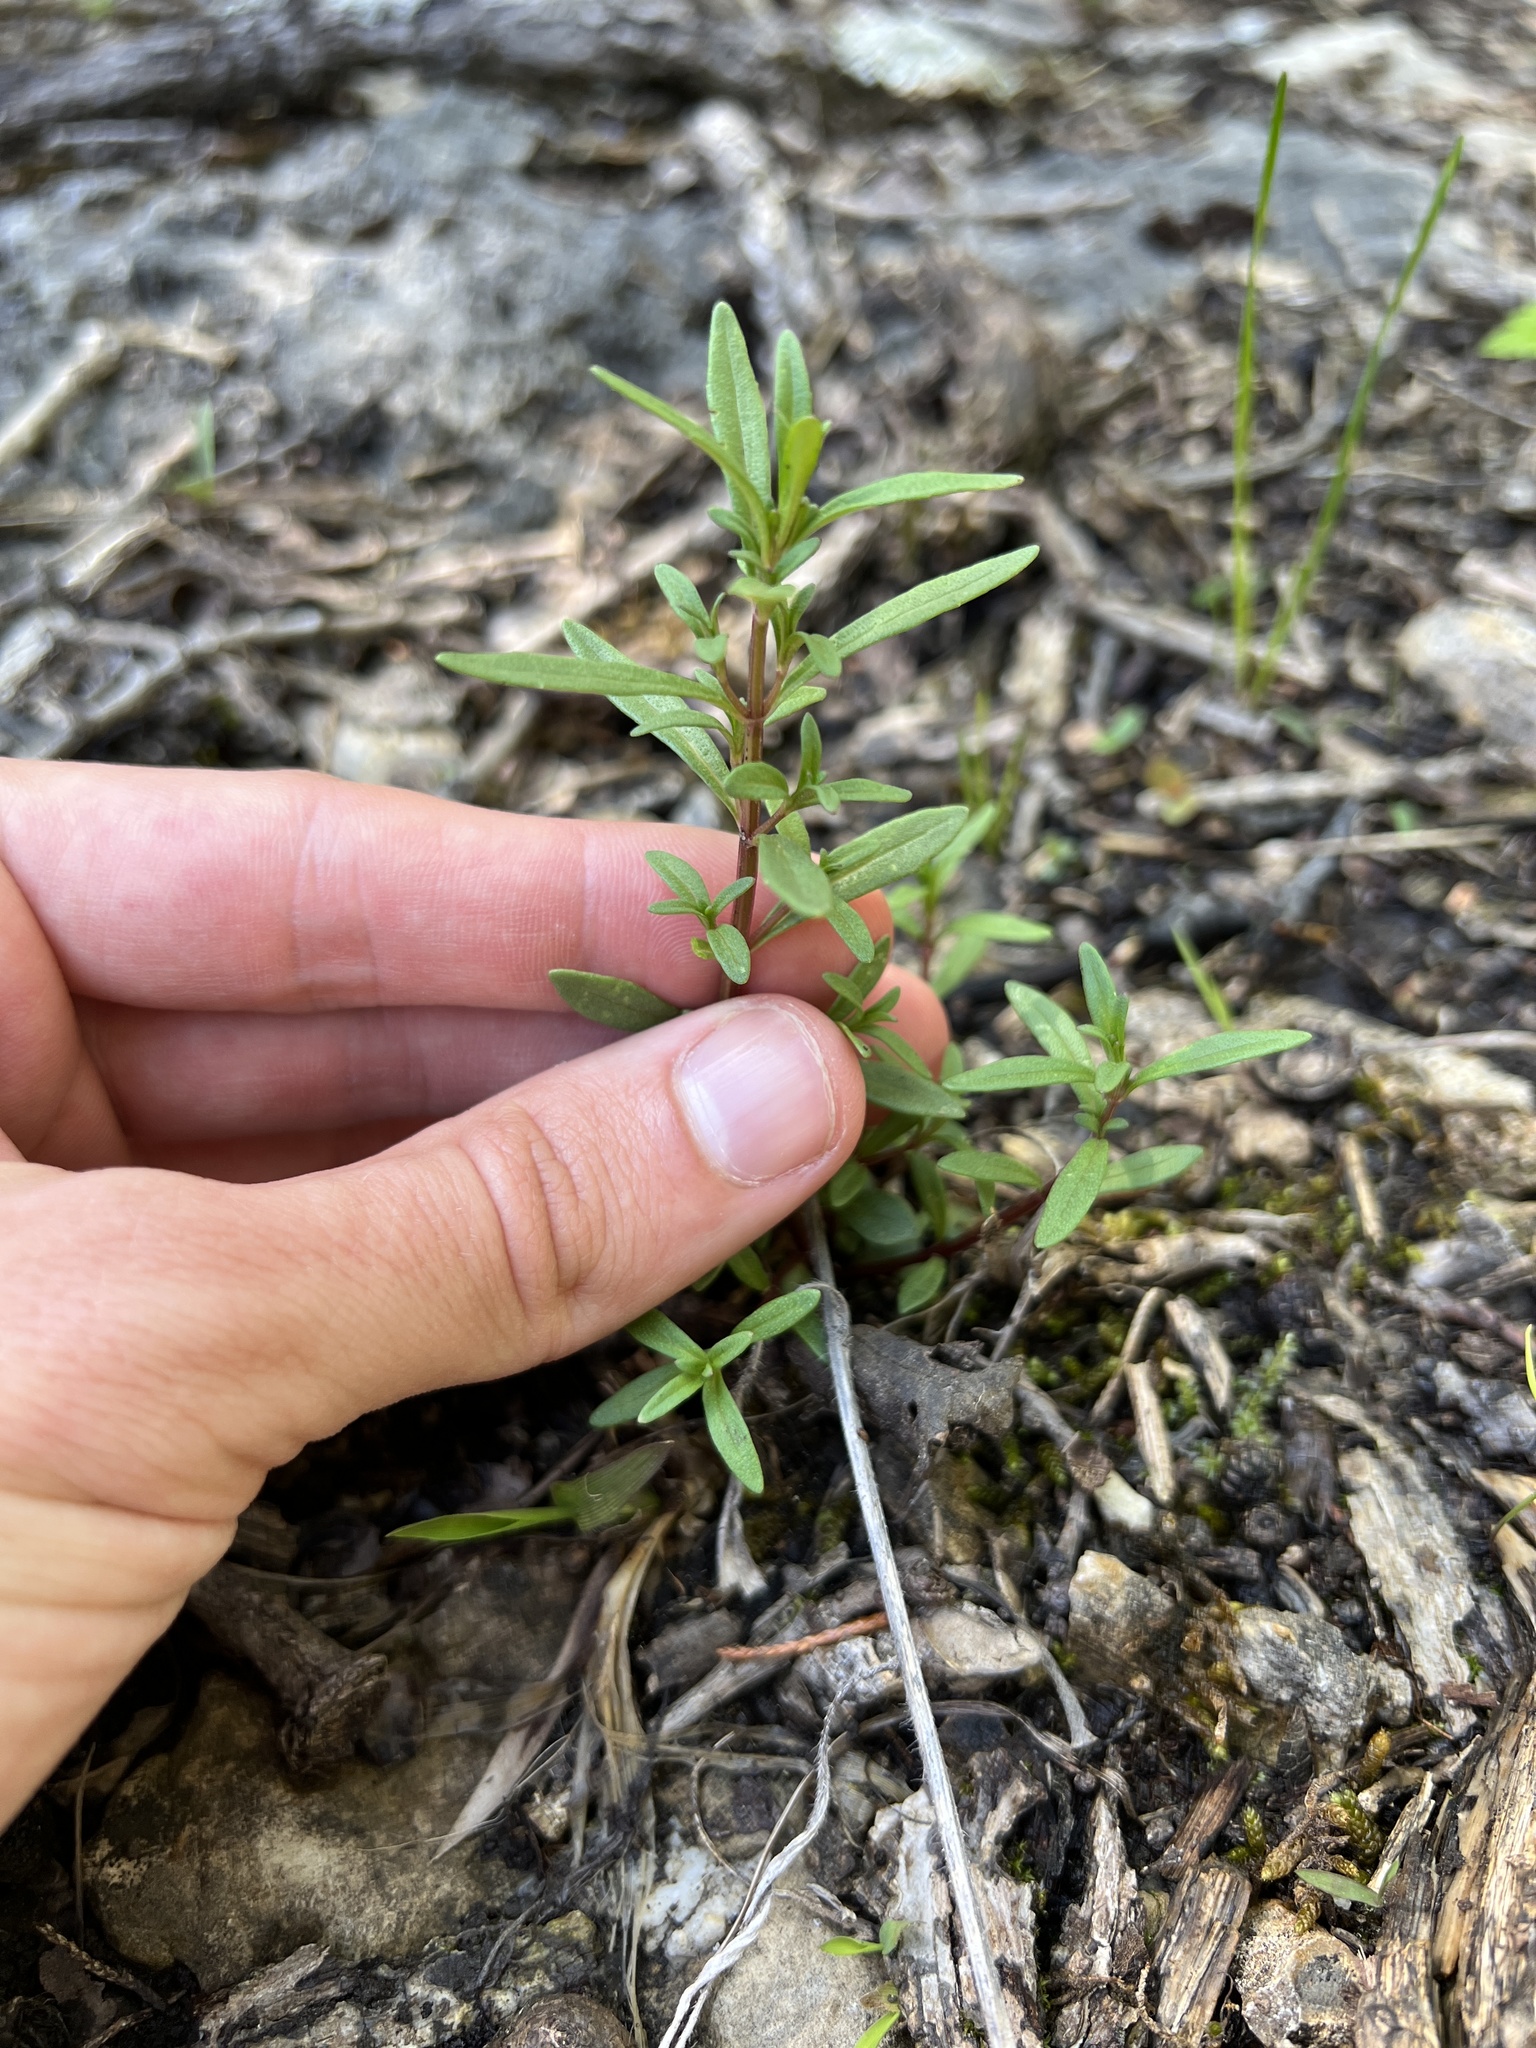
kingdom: Plantae
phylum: Tracheophyta
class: Magnoliopsida
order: Lamiales
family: Lamiaceae
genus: Clinopodium
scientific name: Clinopodium arkansanum
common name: Limestone calamint
